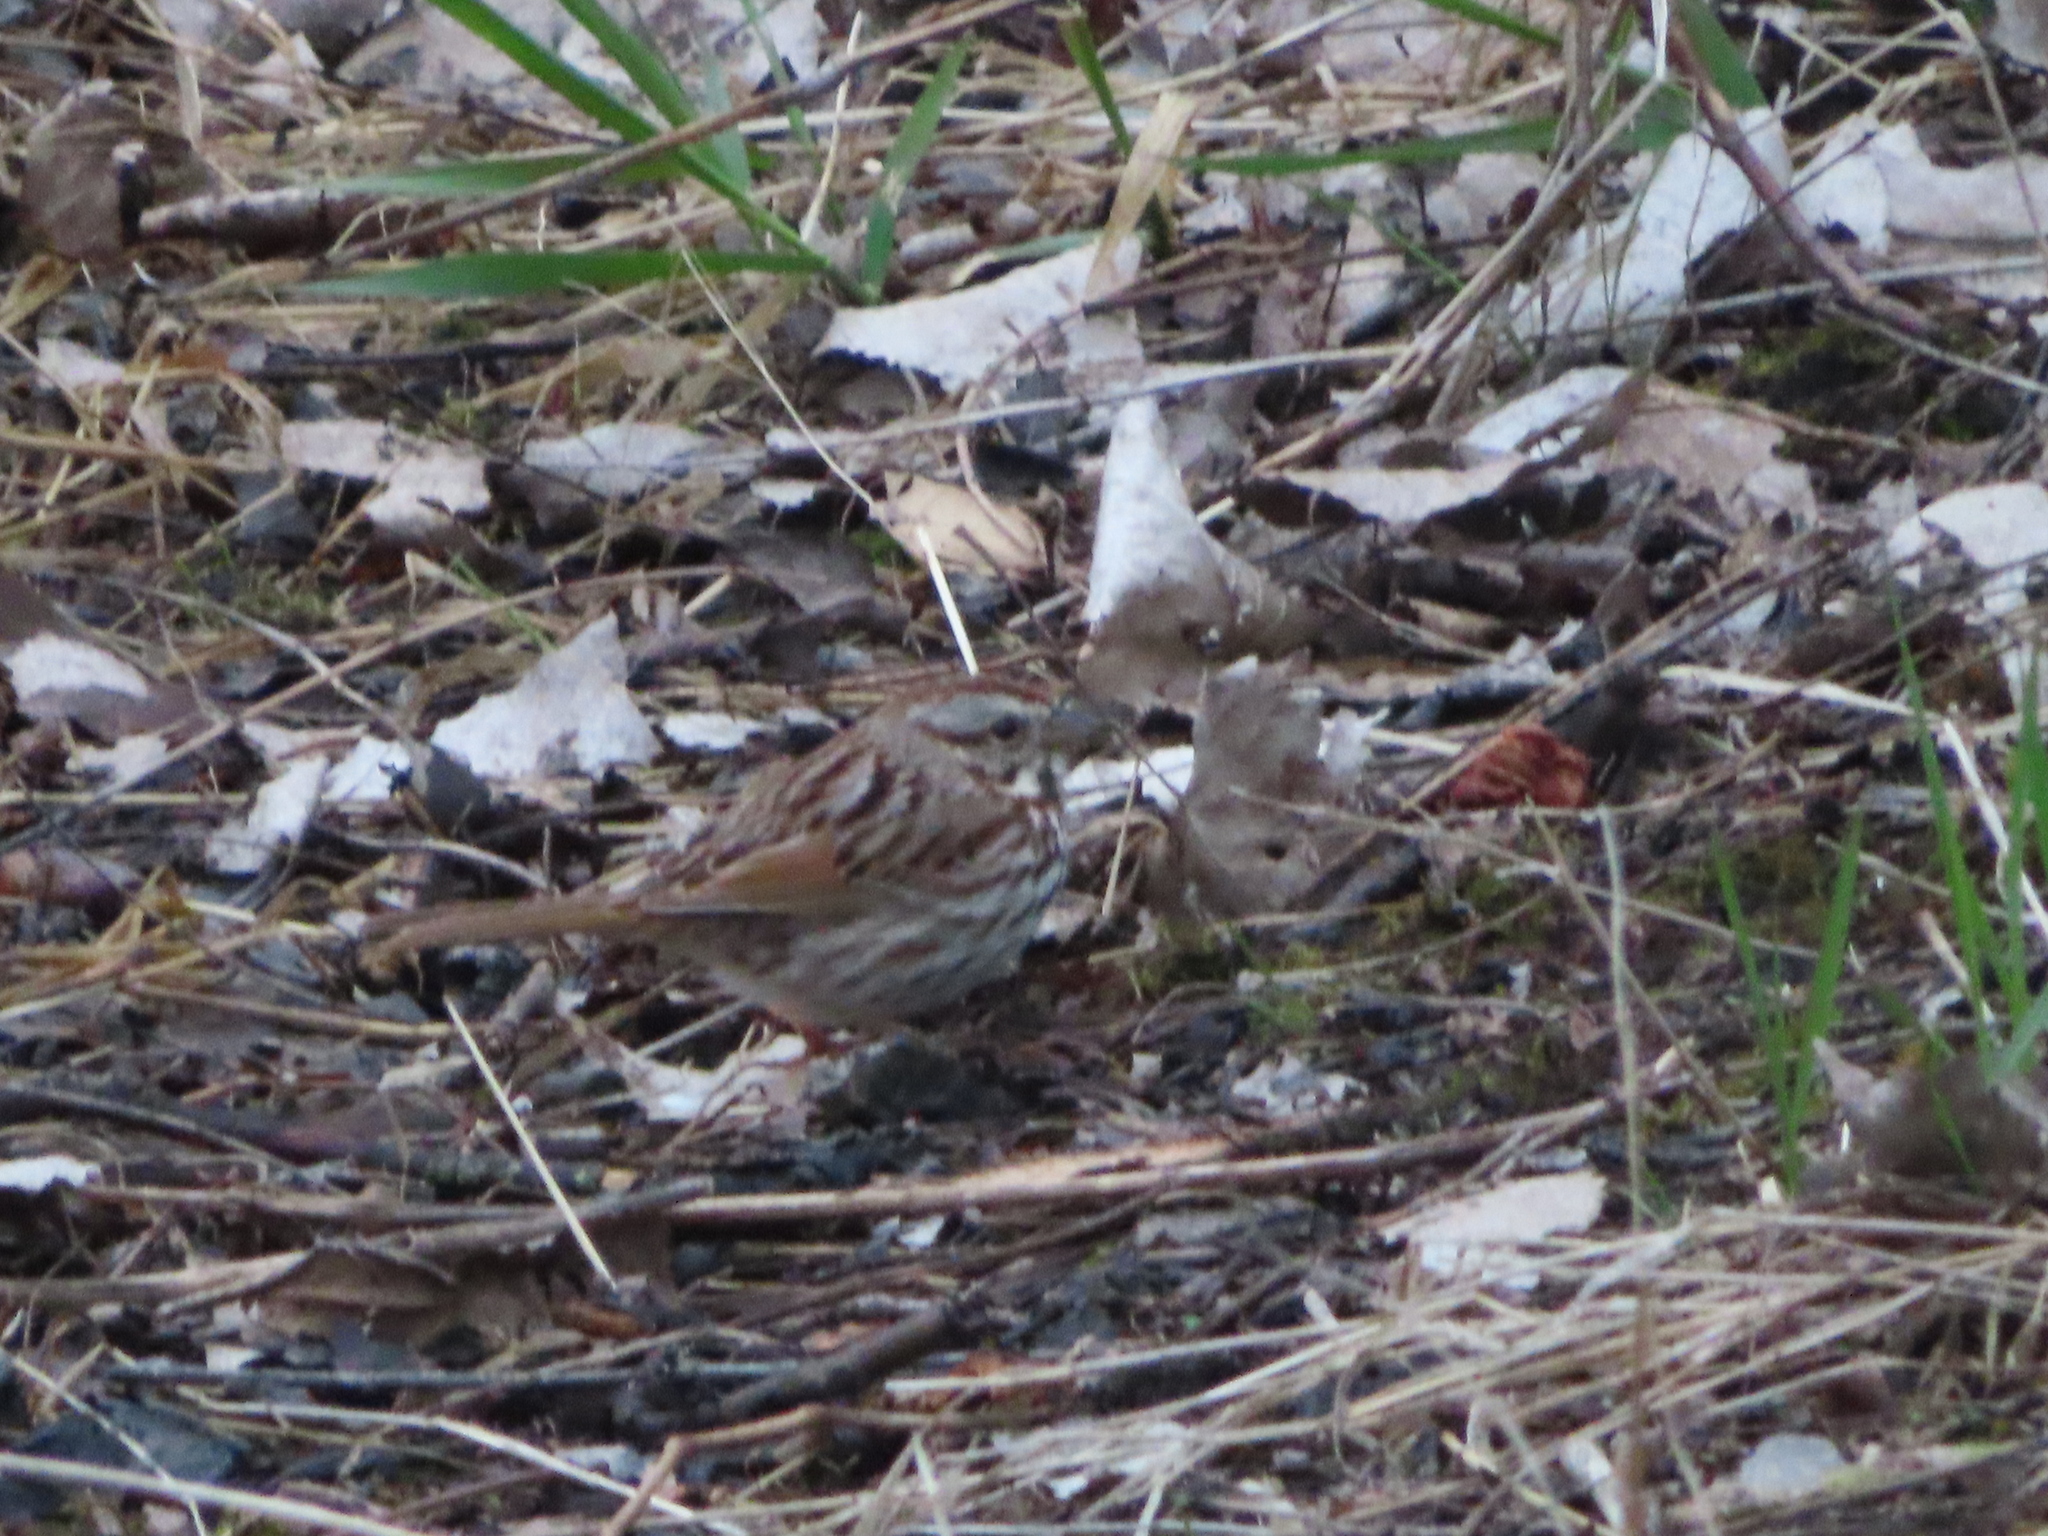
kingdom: Animalia
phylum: Chordata
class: Aves
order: Passeriformes
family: Passerellidae
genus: Melospiza
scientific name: Melospiza melodia
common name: Song sparrow
